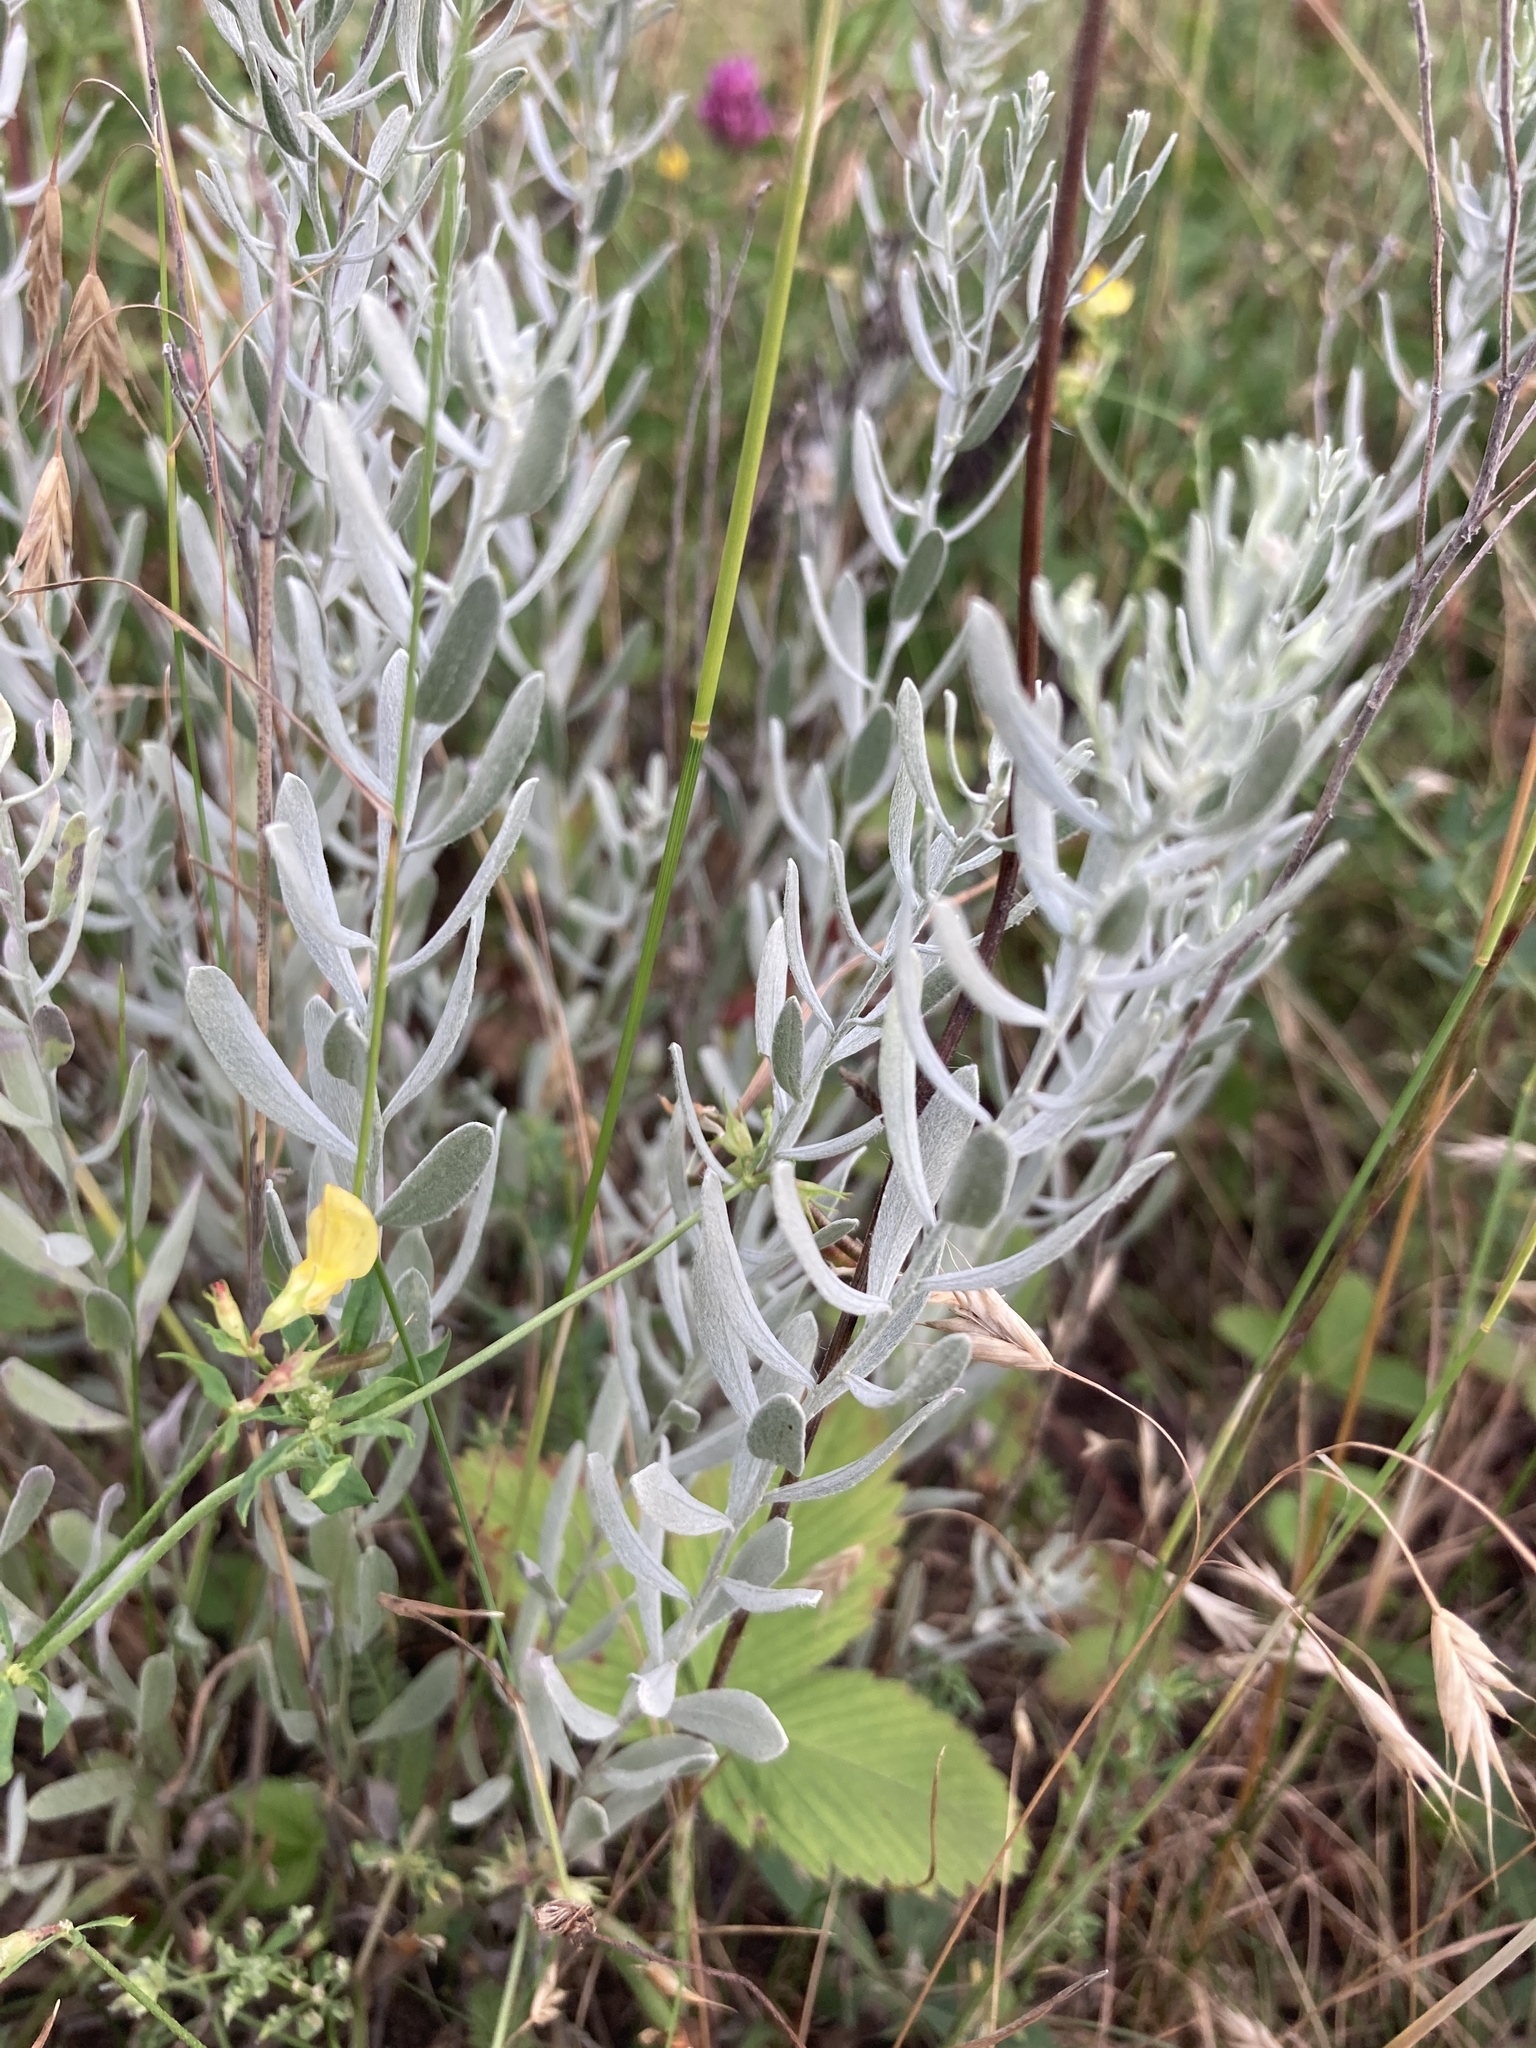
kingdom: Plantae
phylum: Tracheophyta
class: Magnoliopsida
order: Asterales
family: Asteraceae
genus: Galatella
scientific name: Galatella villosa
